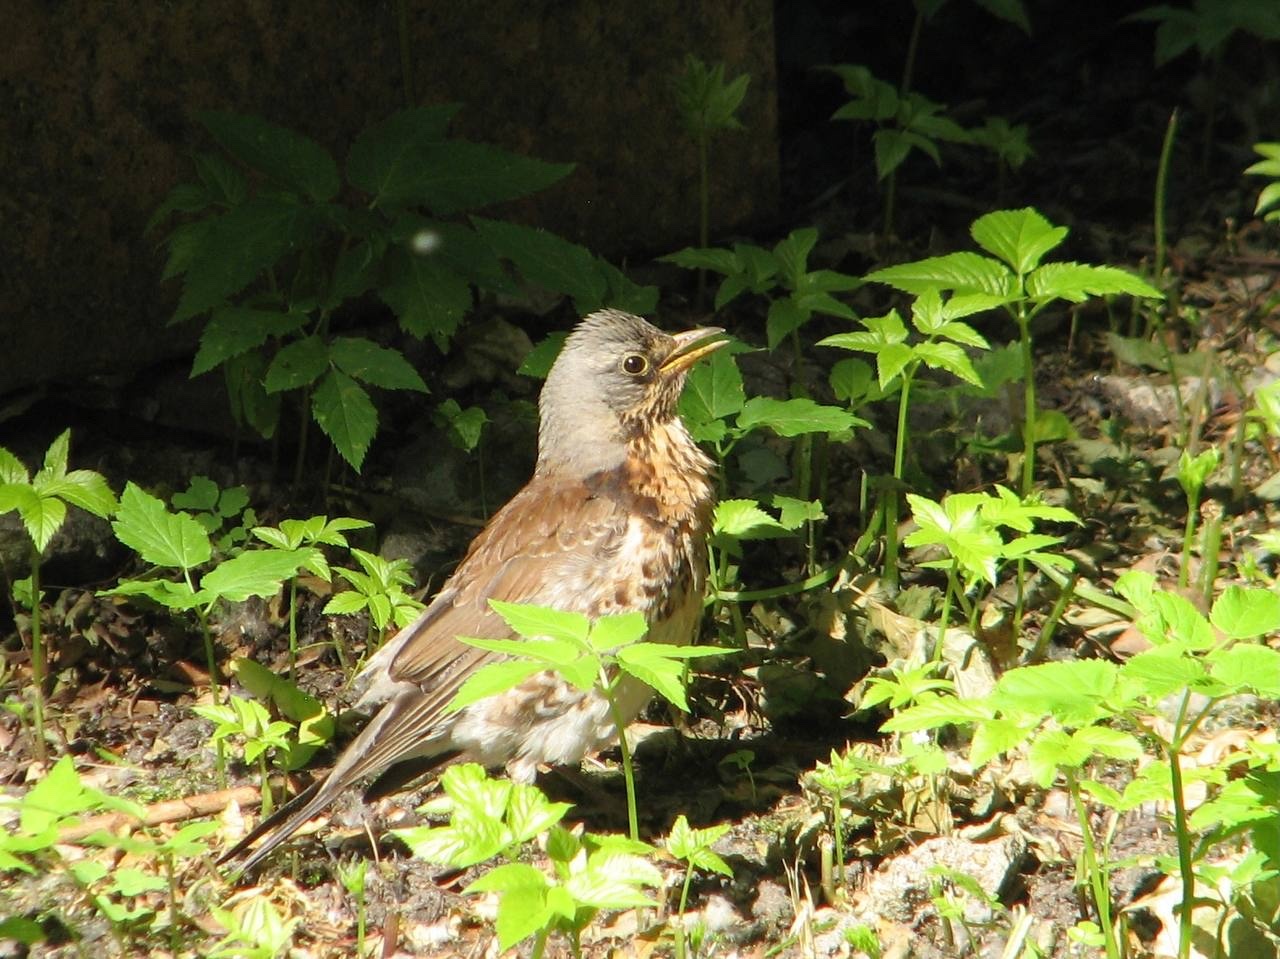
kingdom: Animalia
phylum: Chordata
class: Aves
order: Passeriformes
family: Turdidae
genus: Turdus
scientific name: Turdus pilaris
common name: Fieldfare
